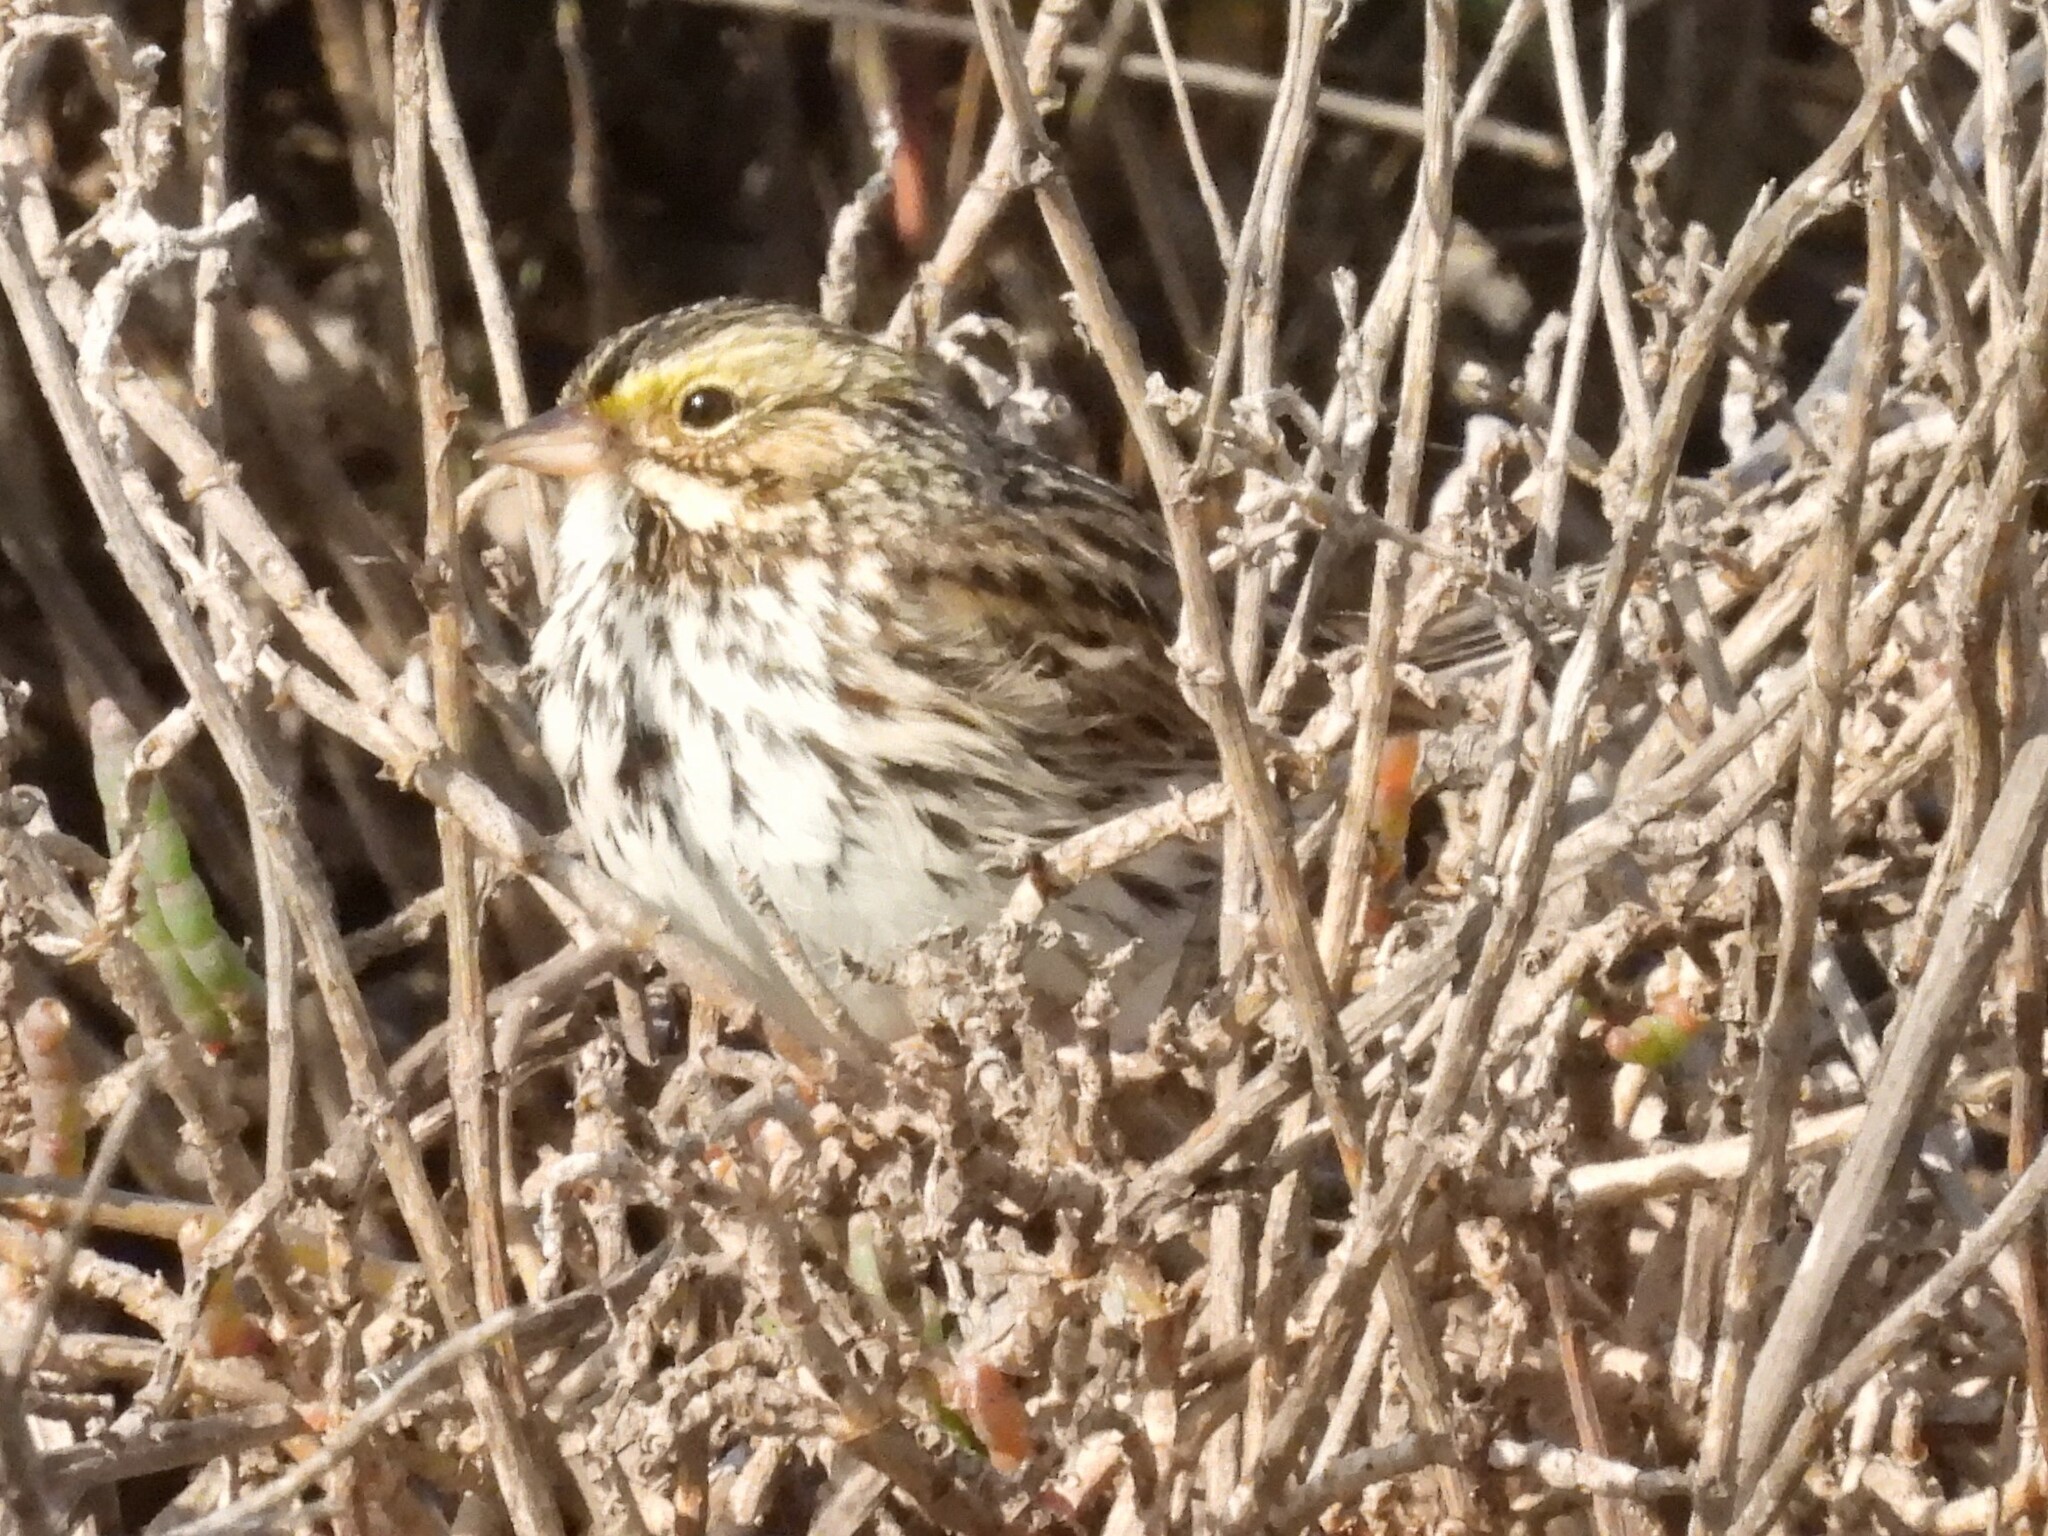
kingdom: Animalia
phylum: Chordata
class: Aves
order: Passeriformes
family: Passerellidae
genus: Passerculus
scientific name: Passerculus sandwichensis
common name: Savannah sparrow
